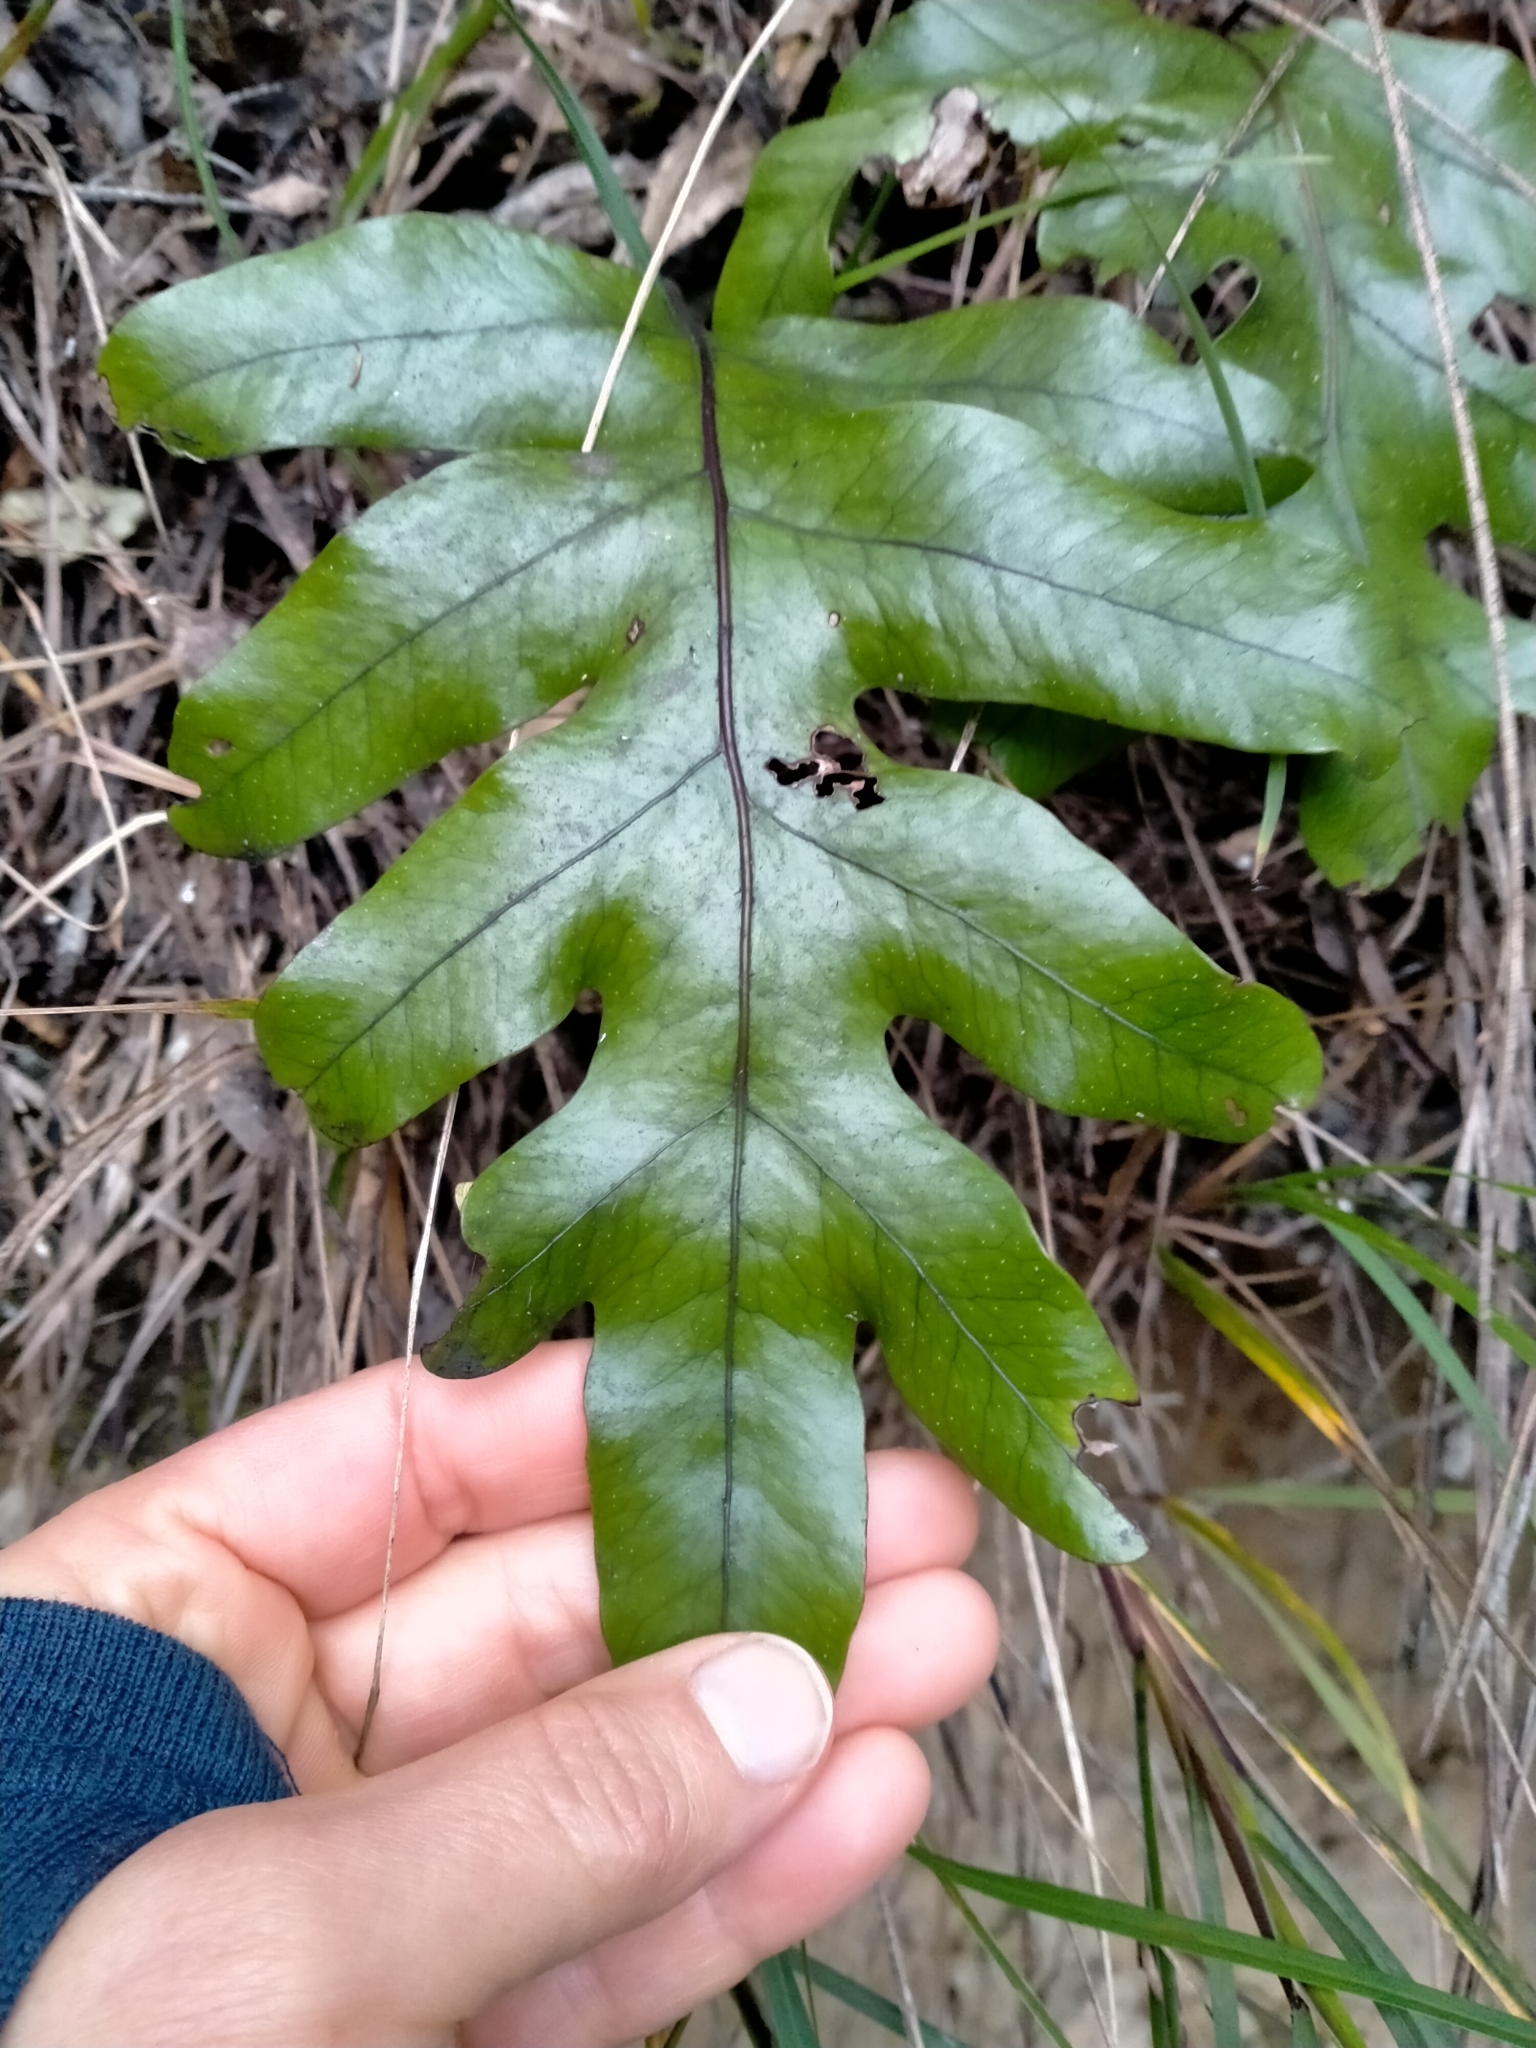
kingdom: Plantae
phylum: Tracheophyta
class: Polypodiopsida
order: Polypodiales
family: Polypodiaceae
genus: Lecanopteris
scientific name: Lecanopteris pustulata
